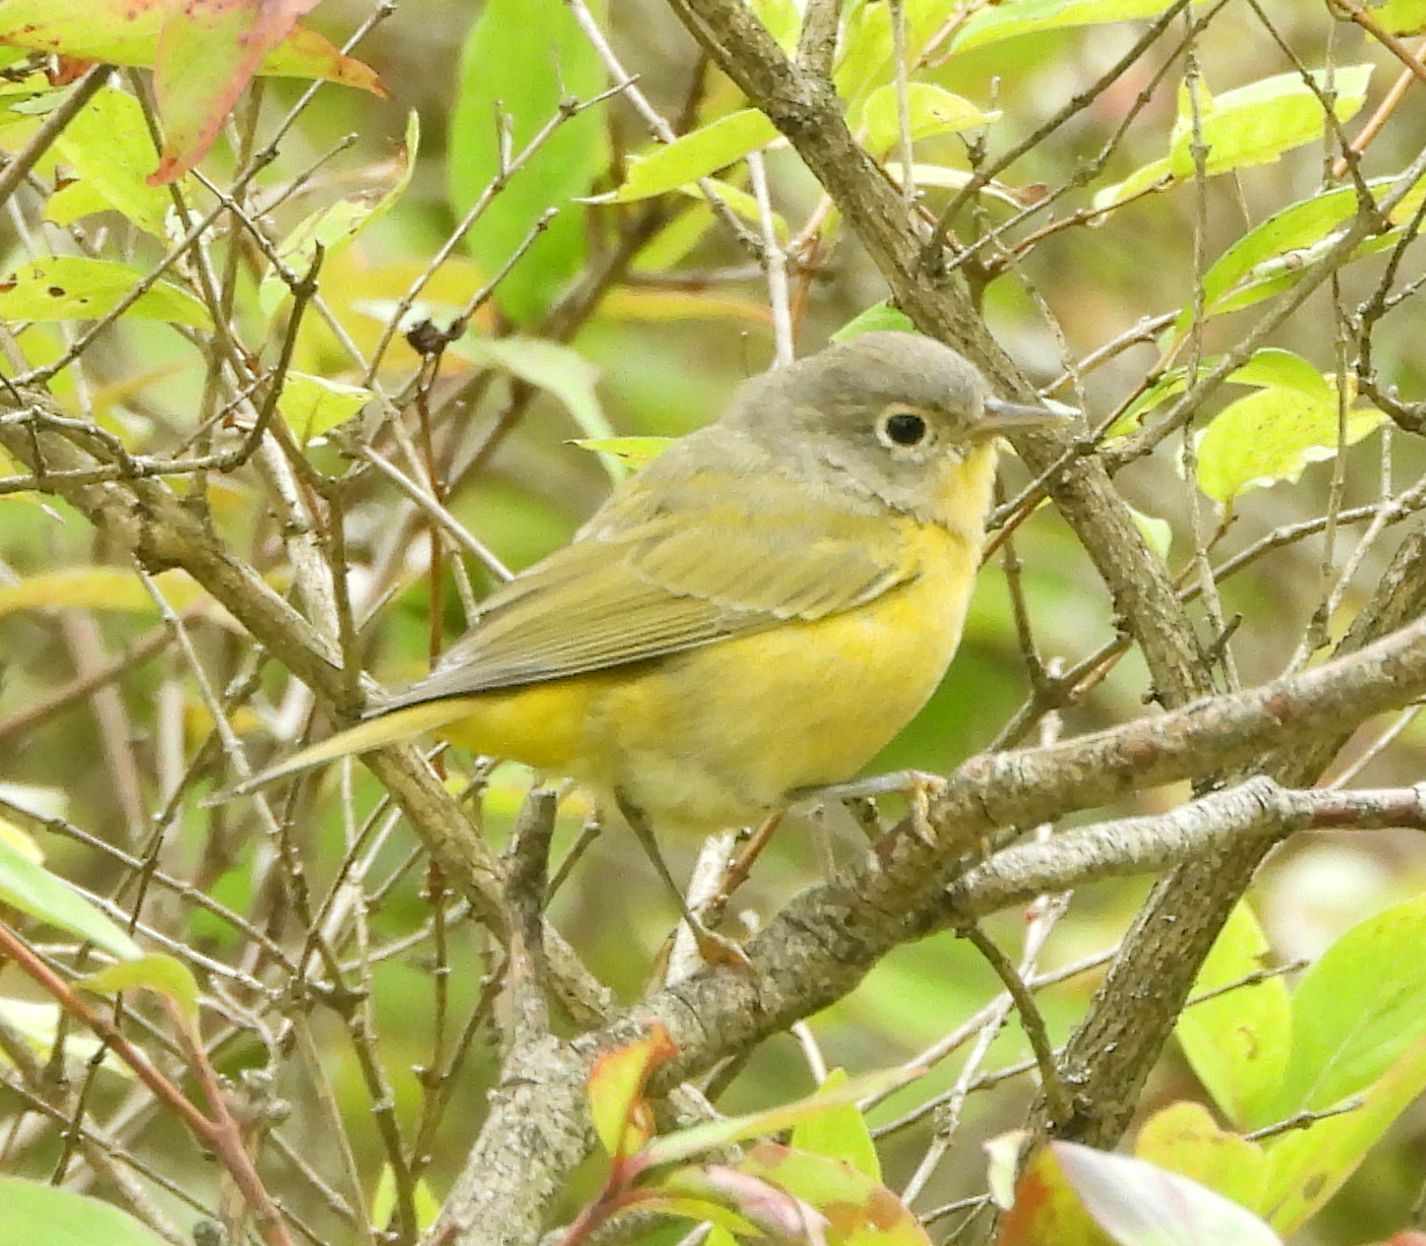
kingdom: Animalia
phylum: Chordata
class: Aves
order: Passeriformes
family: Parulidae
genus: Leiothlypis
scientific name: Leiothlypis ruficapilla
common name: Nashville warbler
